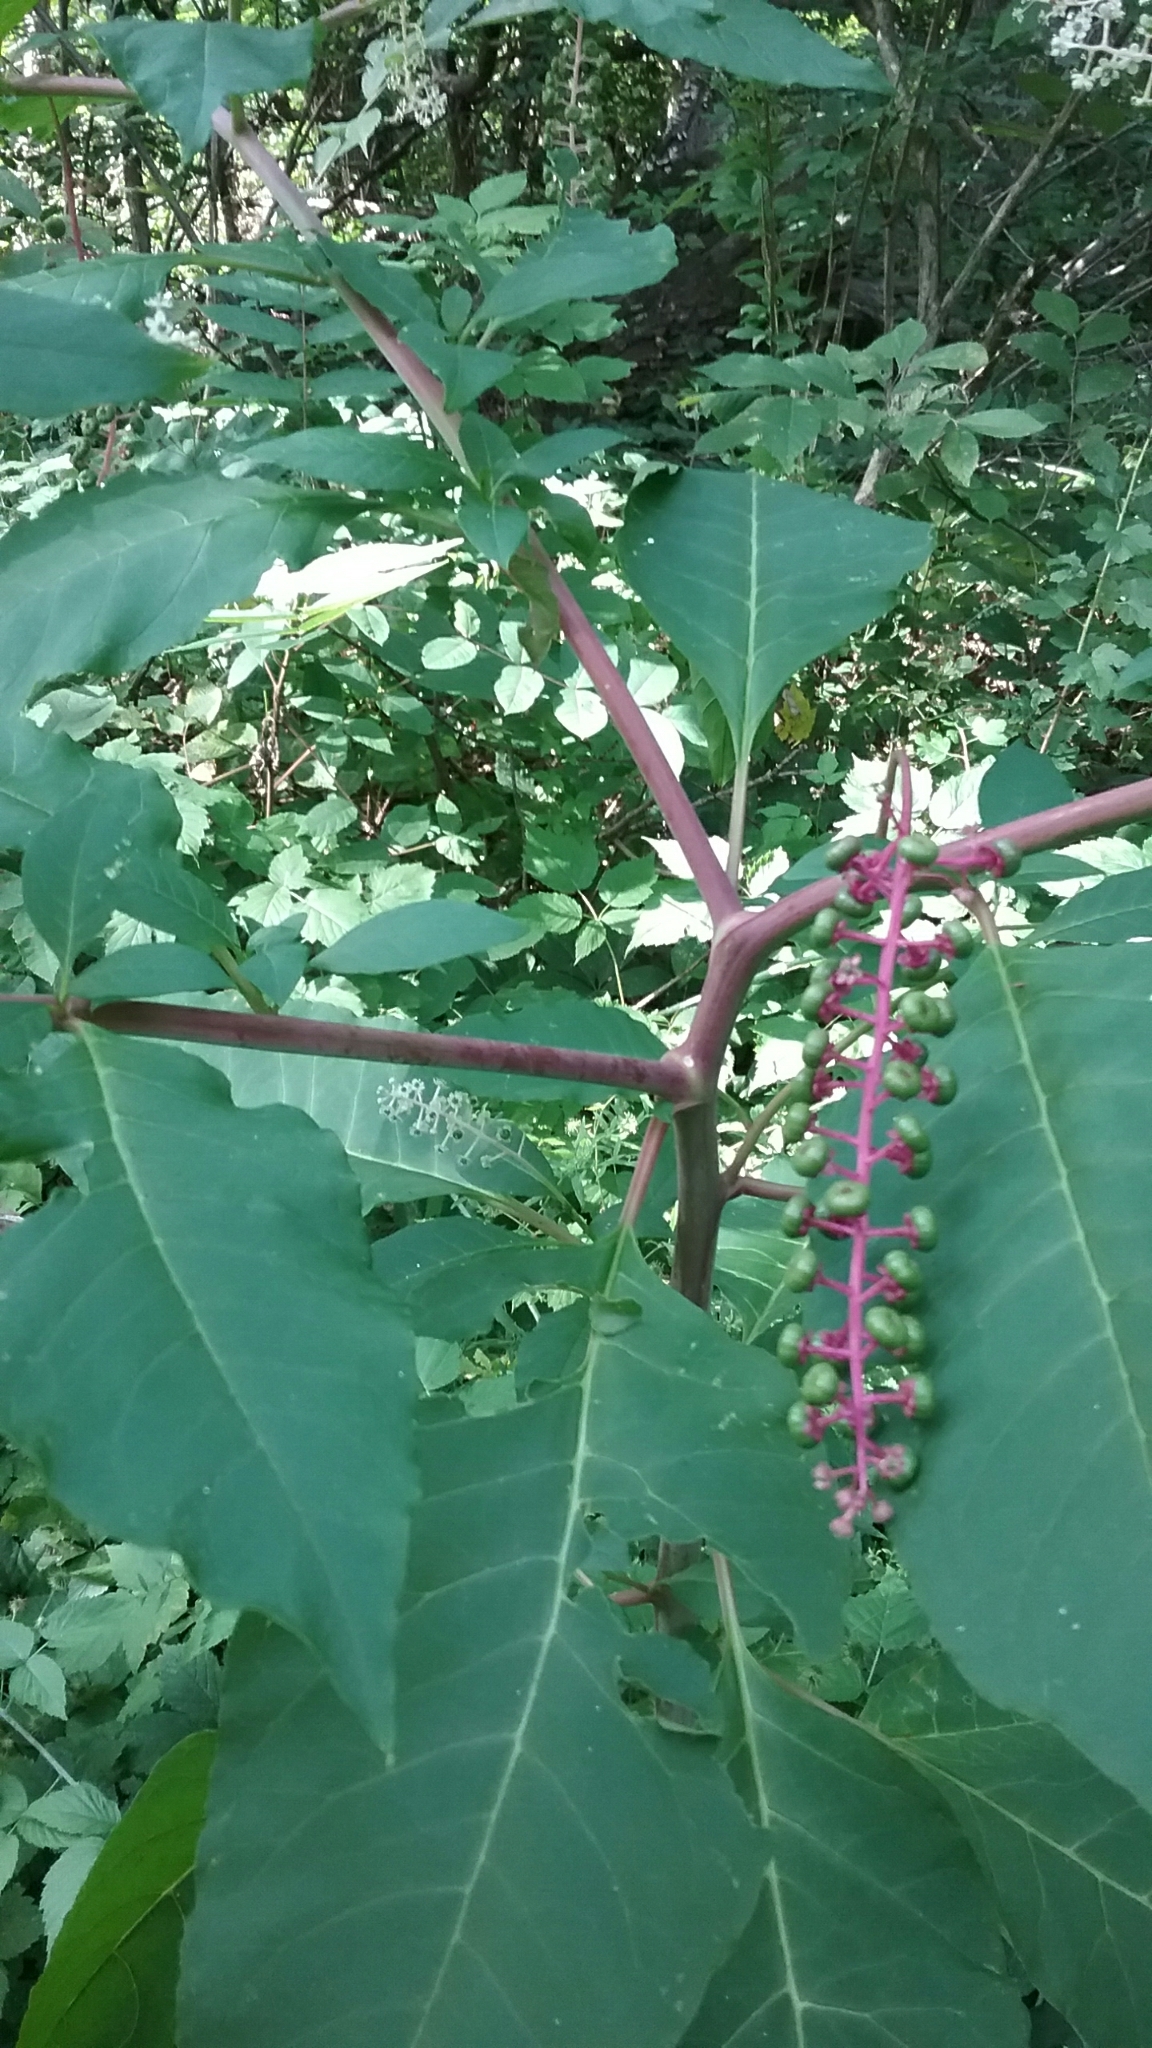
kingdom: Plantae
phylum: Tracheophyta
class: Magnoliopsida
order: Caryophyllales
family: Phytolaccaceae
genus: Phytolacca
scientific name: Phytolacca americana
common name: American pokeweed
